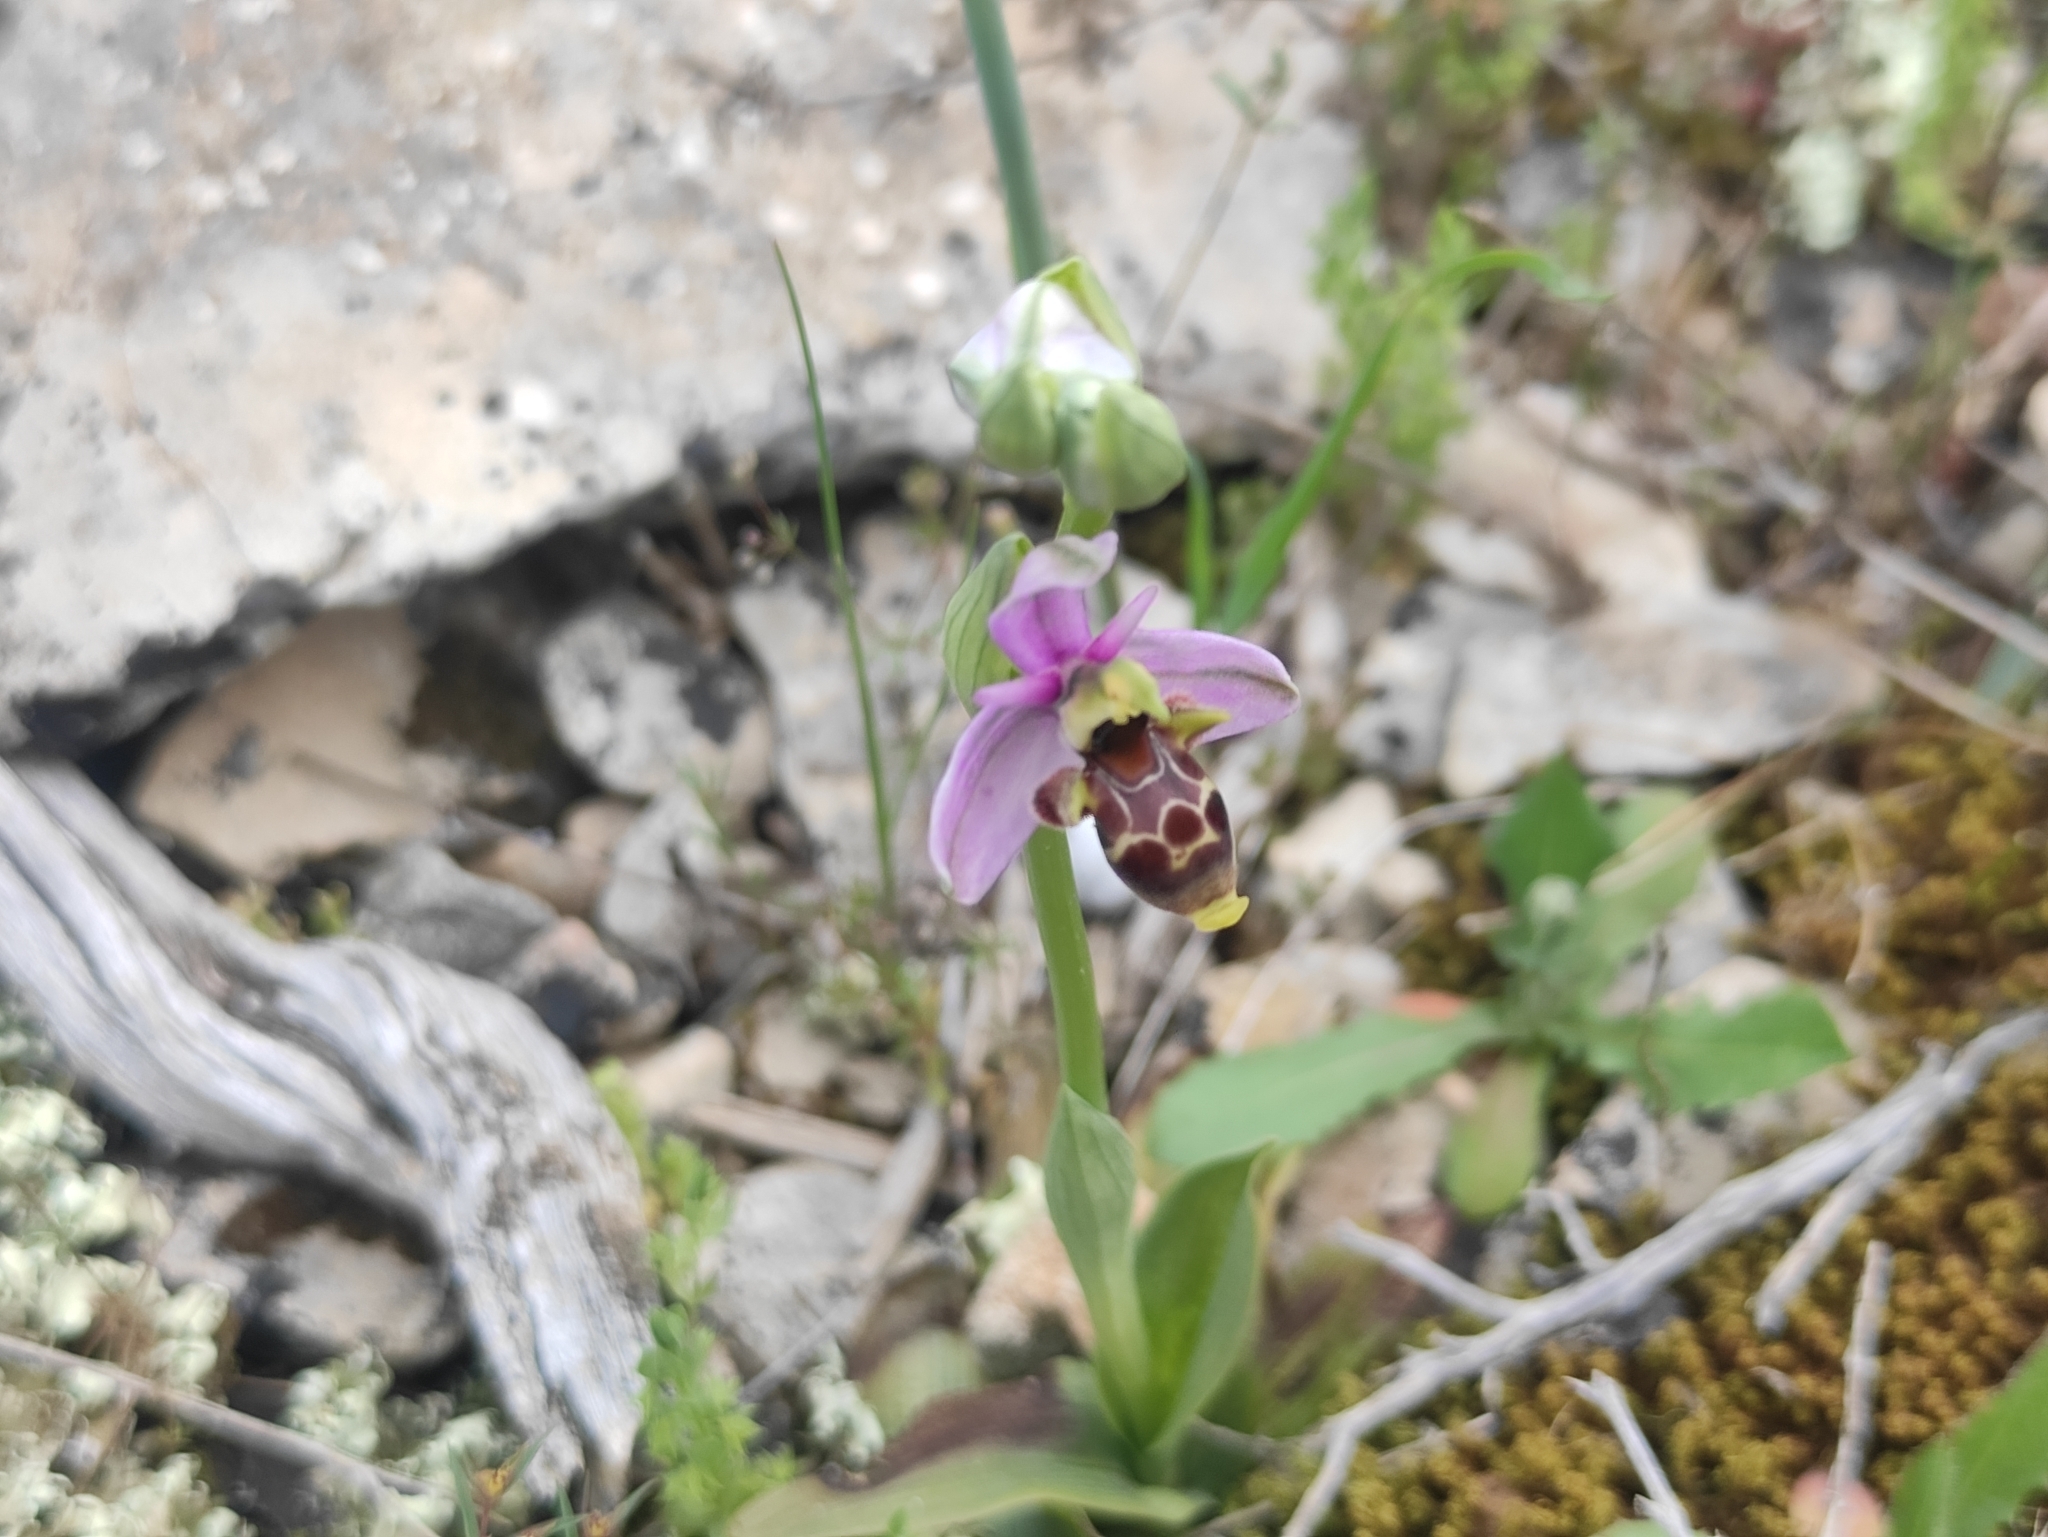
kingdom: Plantae
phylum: Tracheophyta
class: Liliopsida
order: Asparagales
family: Orchidaceae
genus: Ophrys
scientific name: Ophrys scolopax
